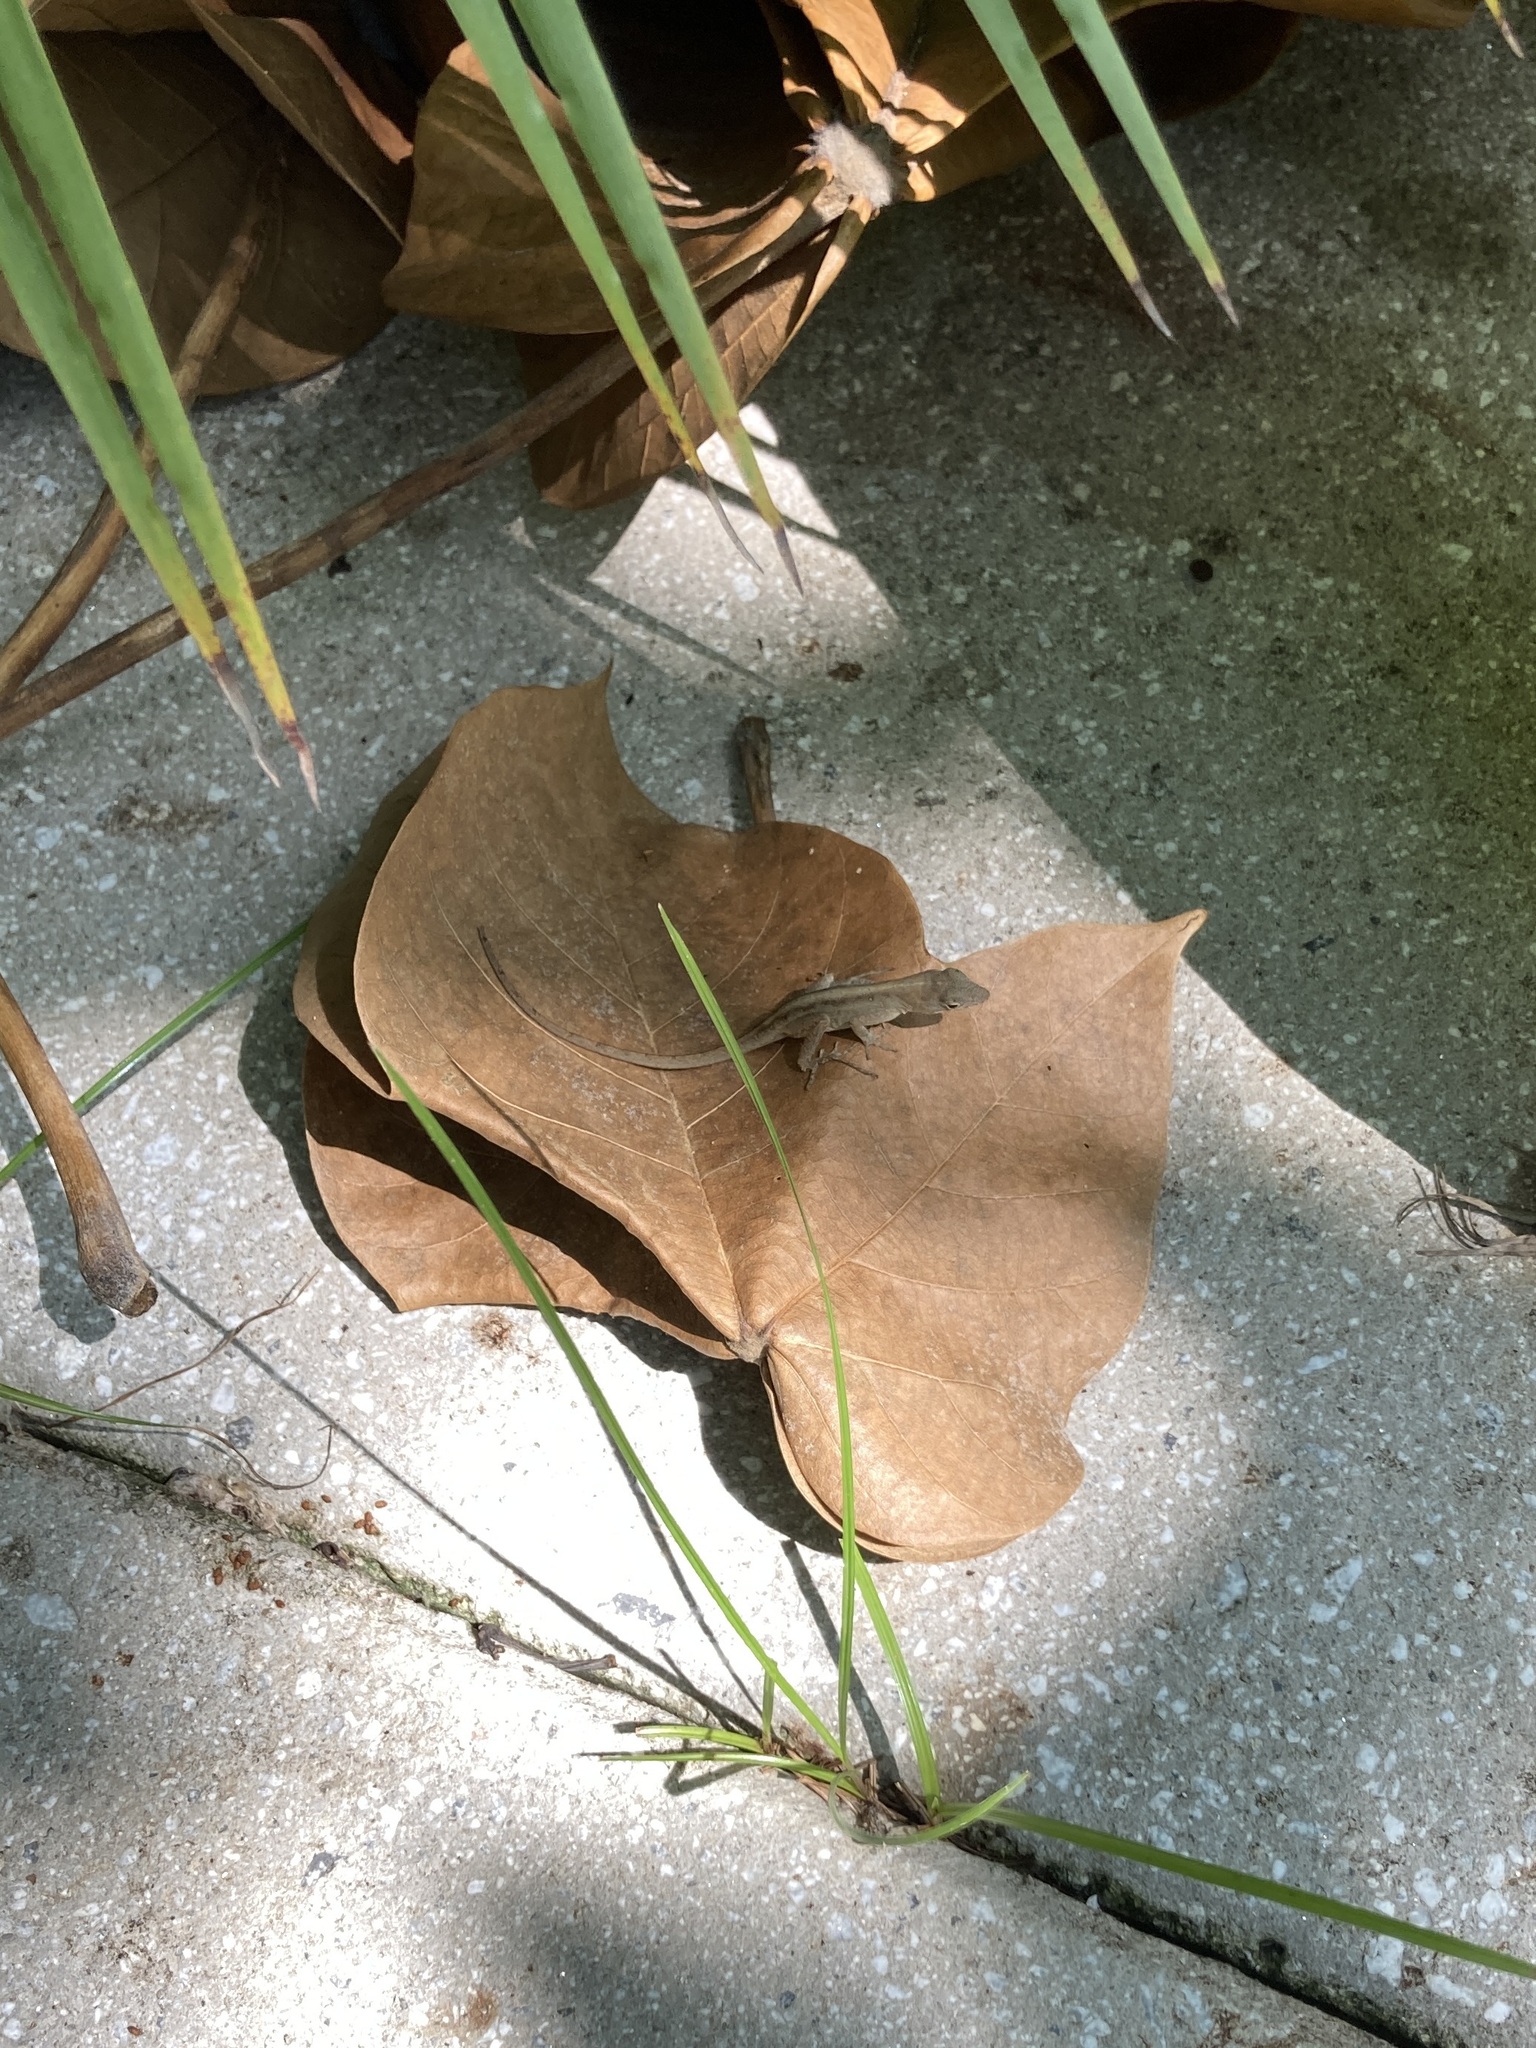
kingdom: Animalia
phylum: Chordata
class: Squamata
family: Dactyloidae
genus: Anolis
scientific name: Anolis sagrei
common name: Brown anole
